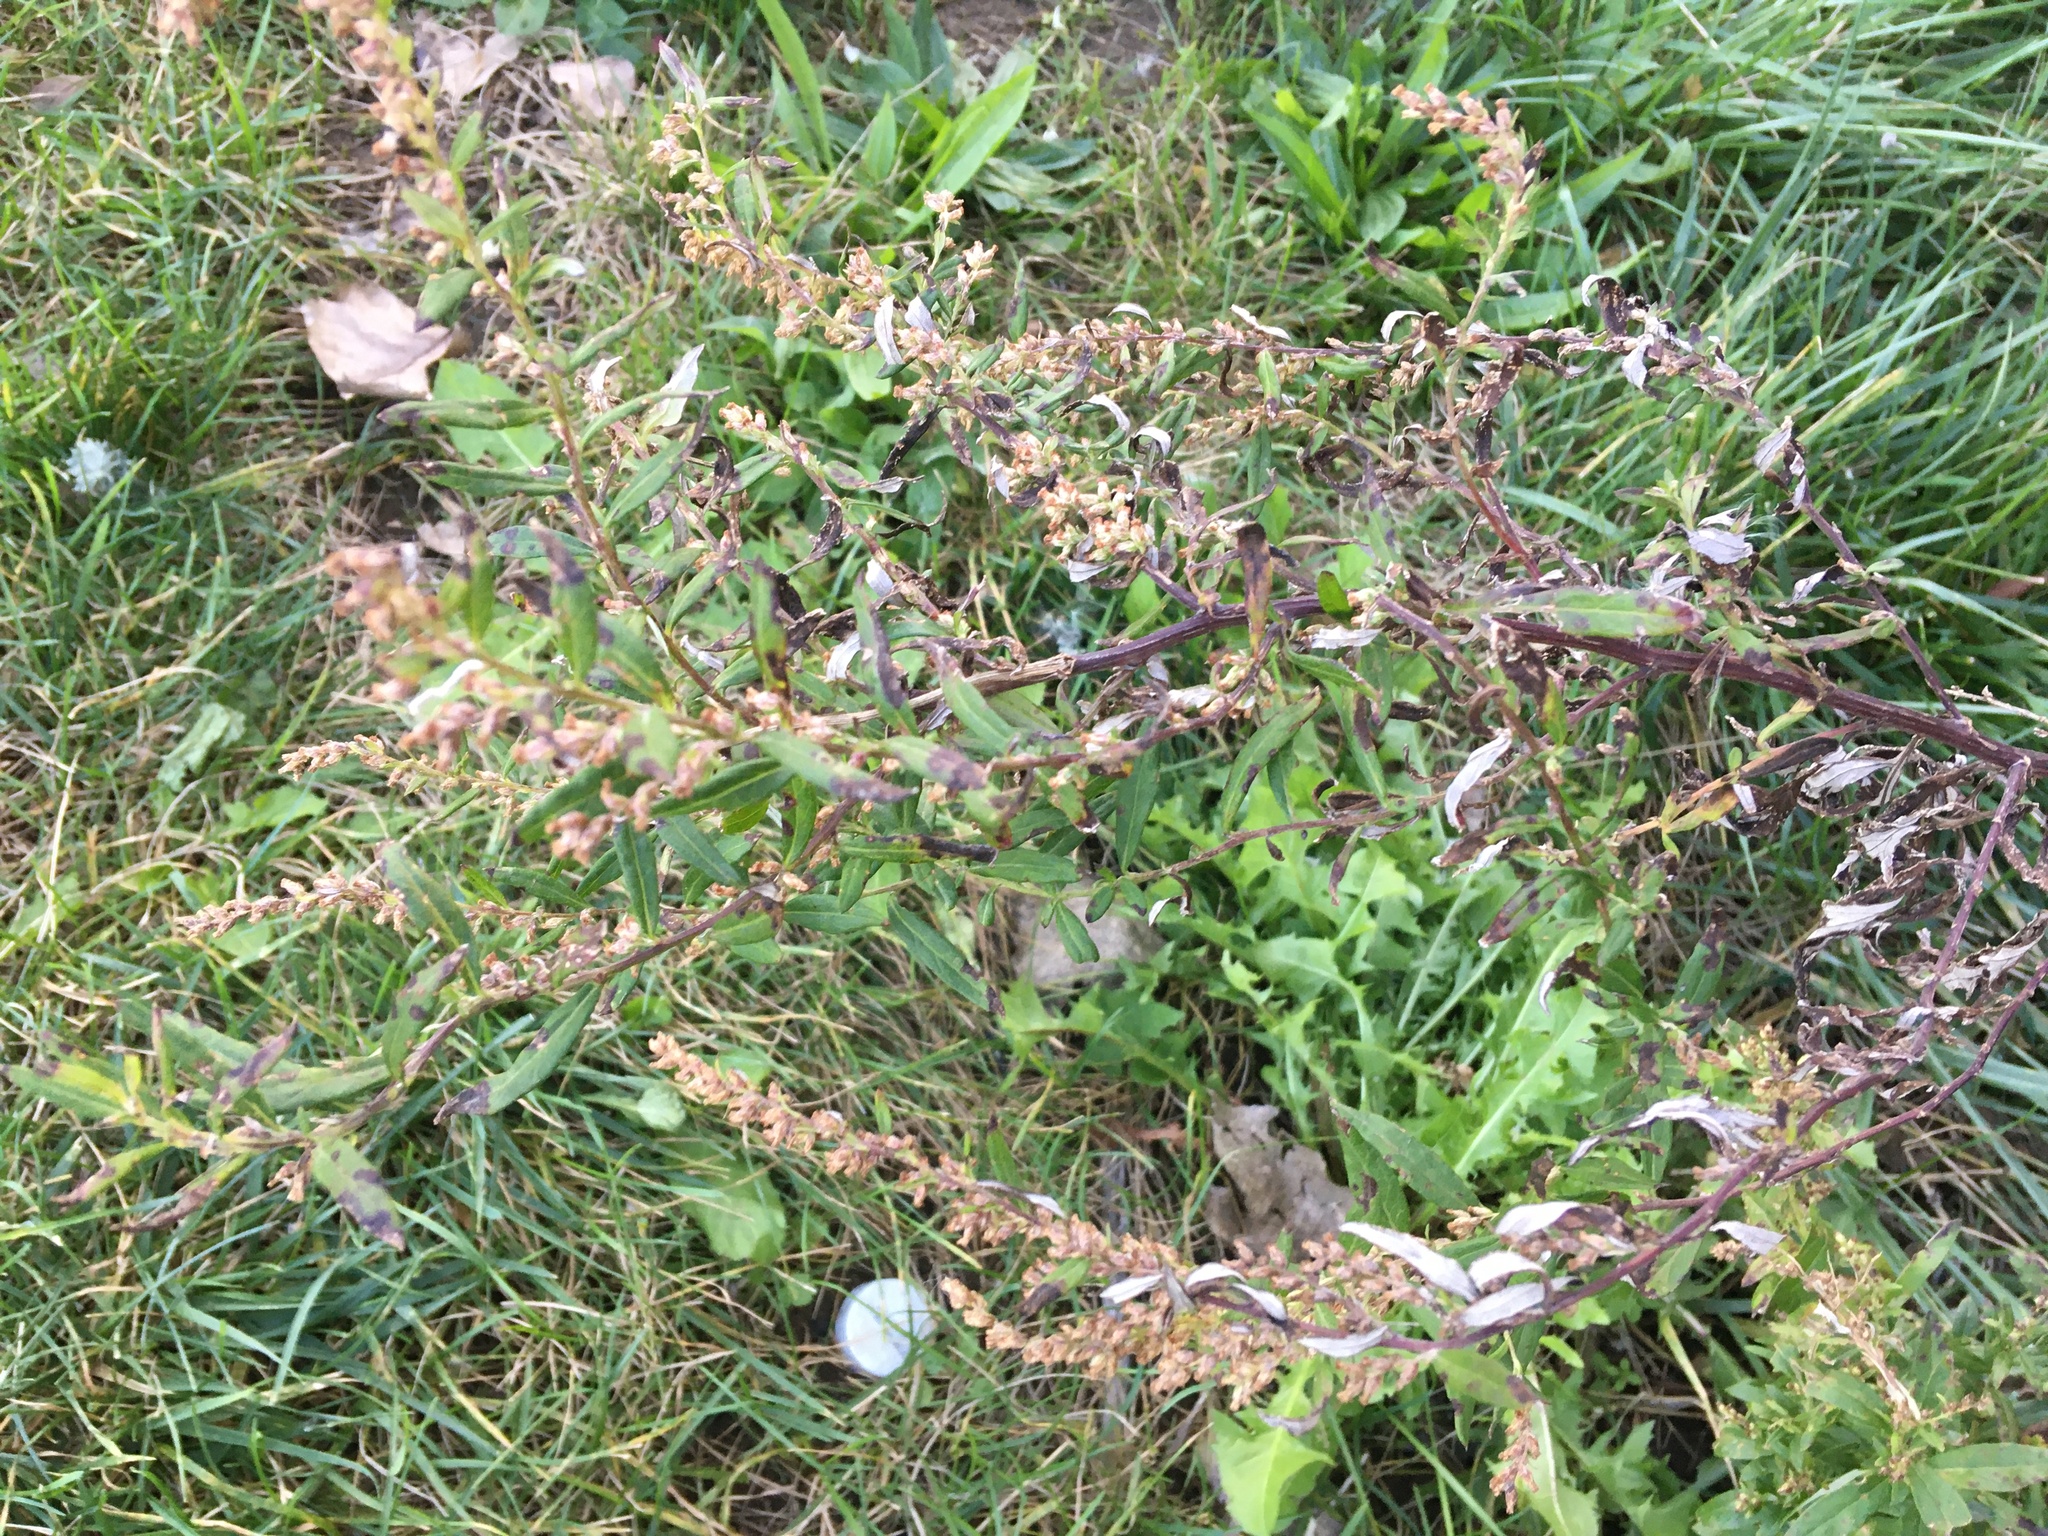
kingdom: Plantae
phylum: Tracheophyta
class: Magnoliopsida
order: Asterales
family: Asteraceae
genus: Artemisia
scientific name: Artemisia vulgaris
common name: Mugwort
